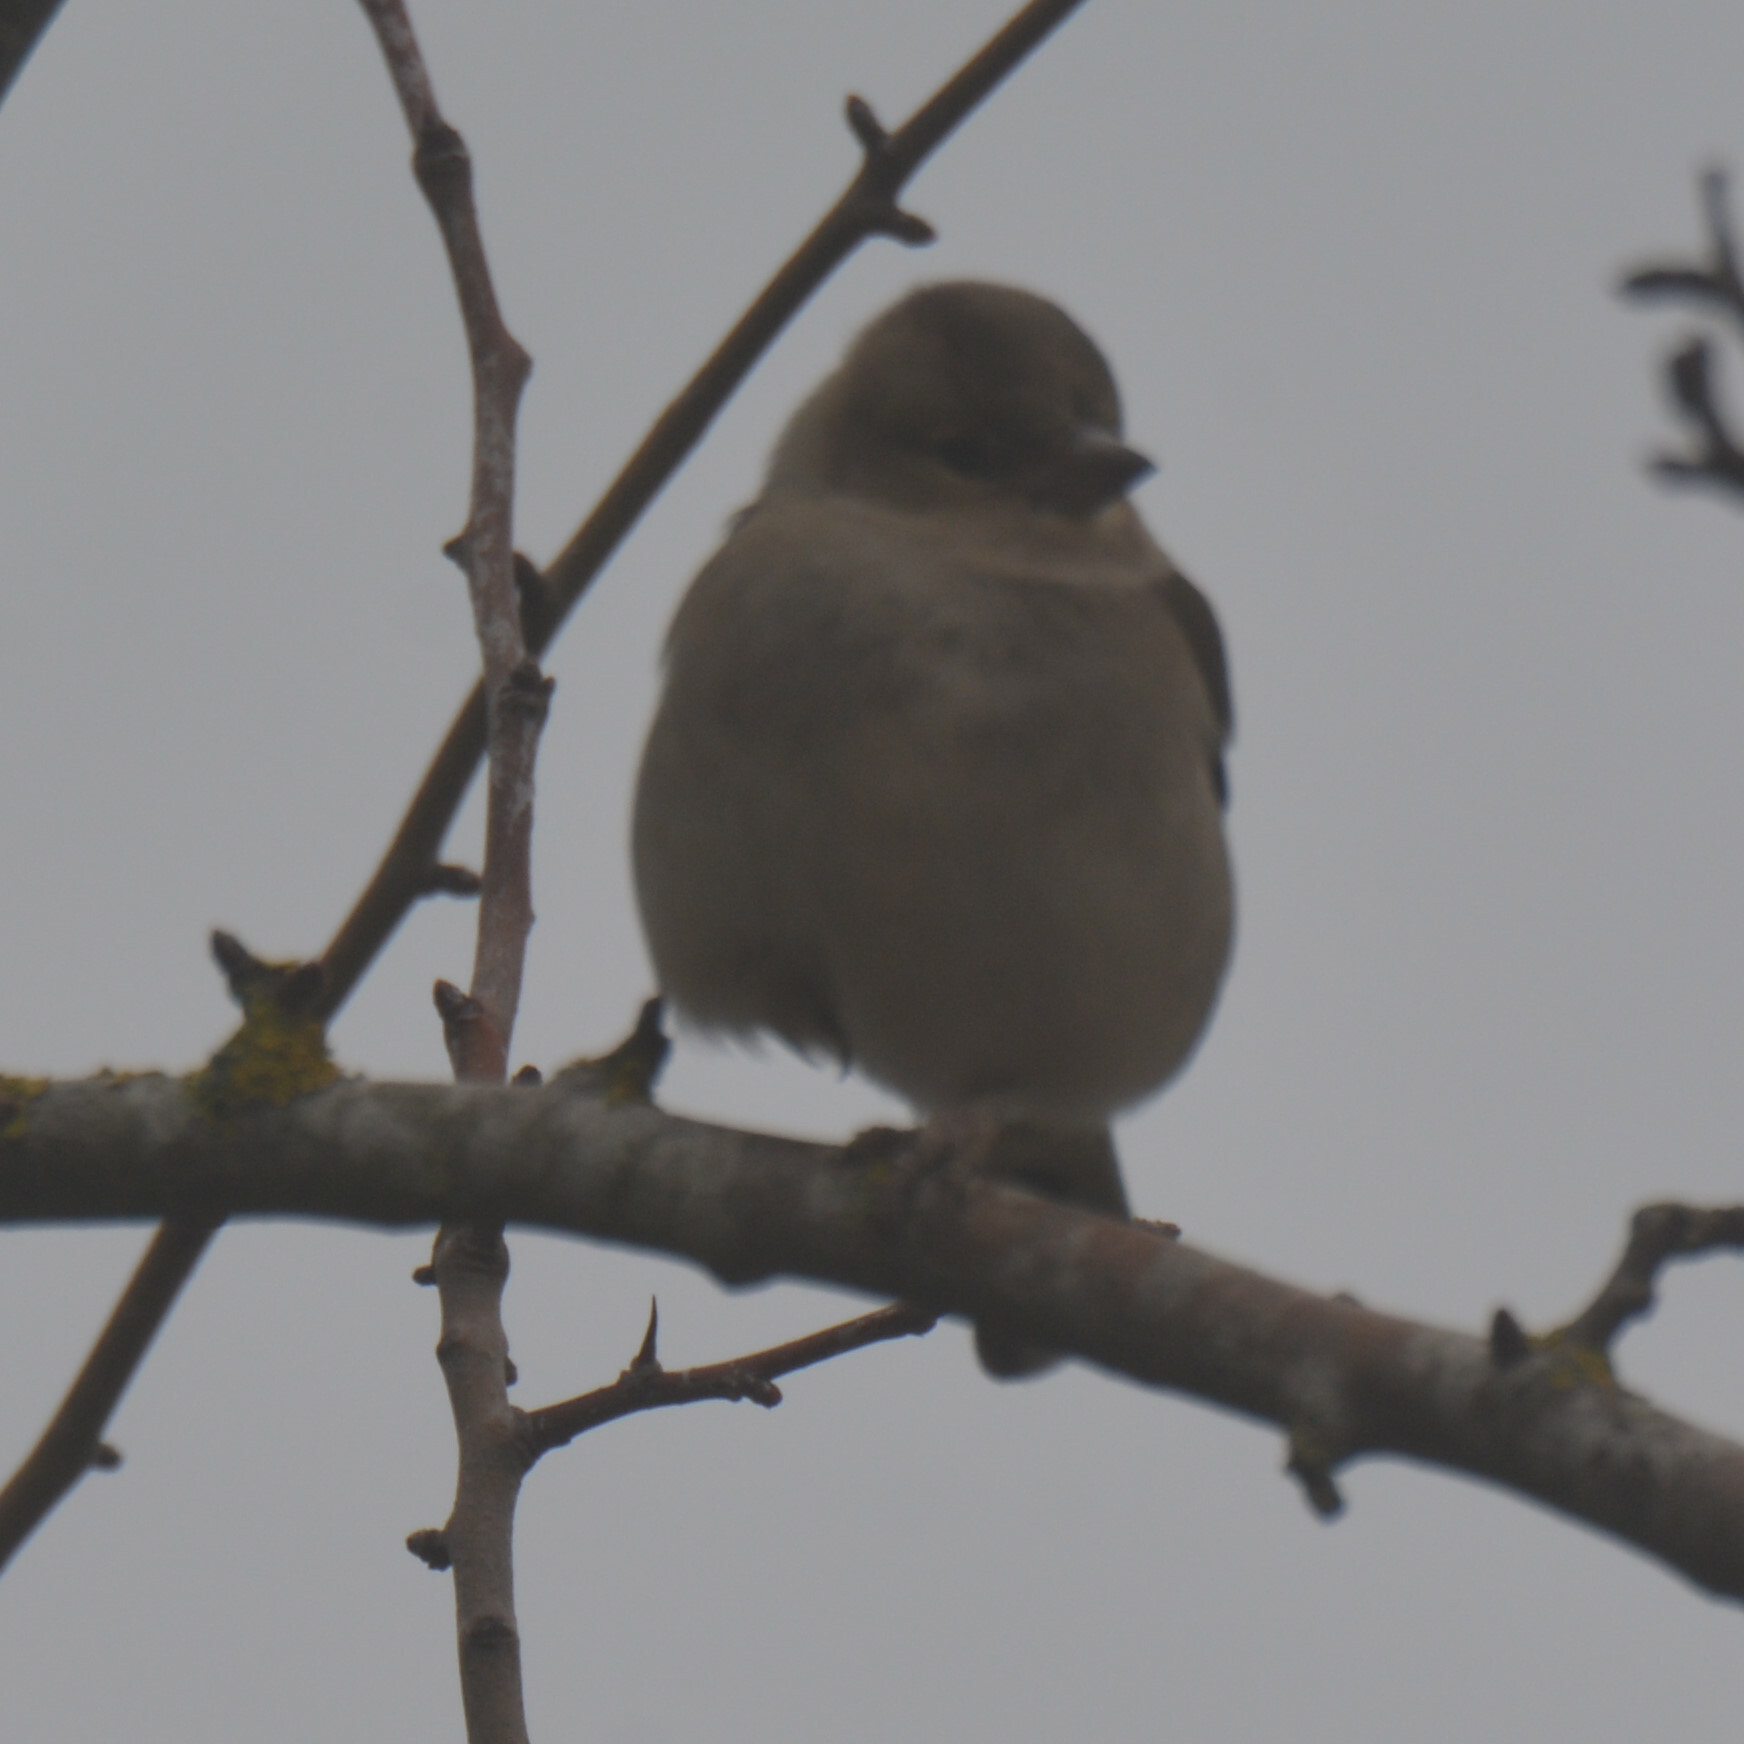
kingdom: Animalia
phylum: Chordata
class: Aves
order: Passeriformes
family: Fringillidae
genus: Fringilla
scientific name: Fringilla coelebs
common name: Common chaffinch
